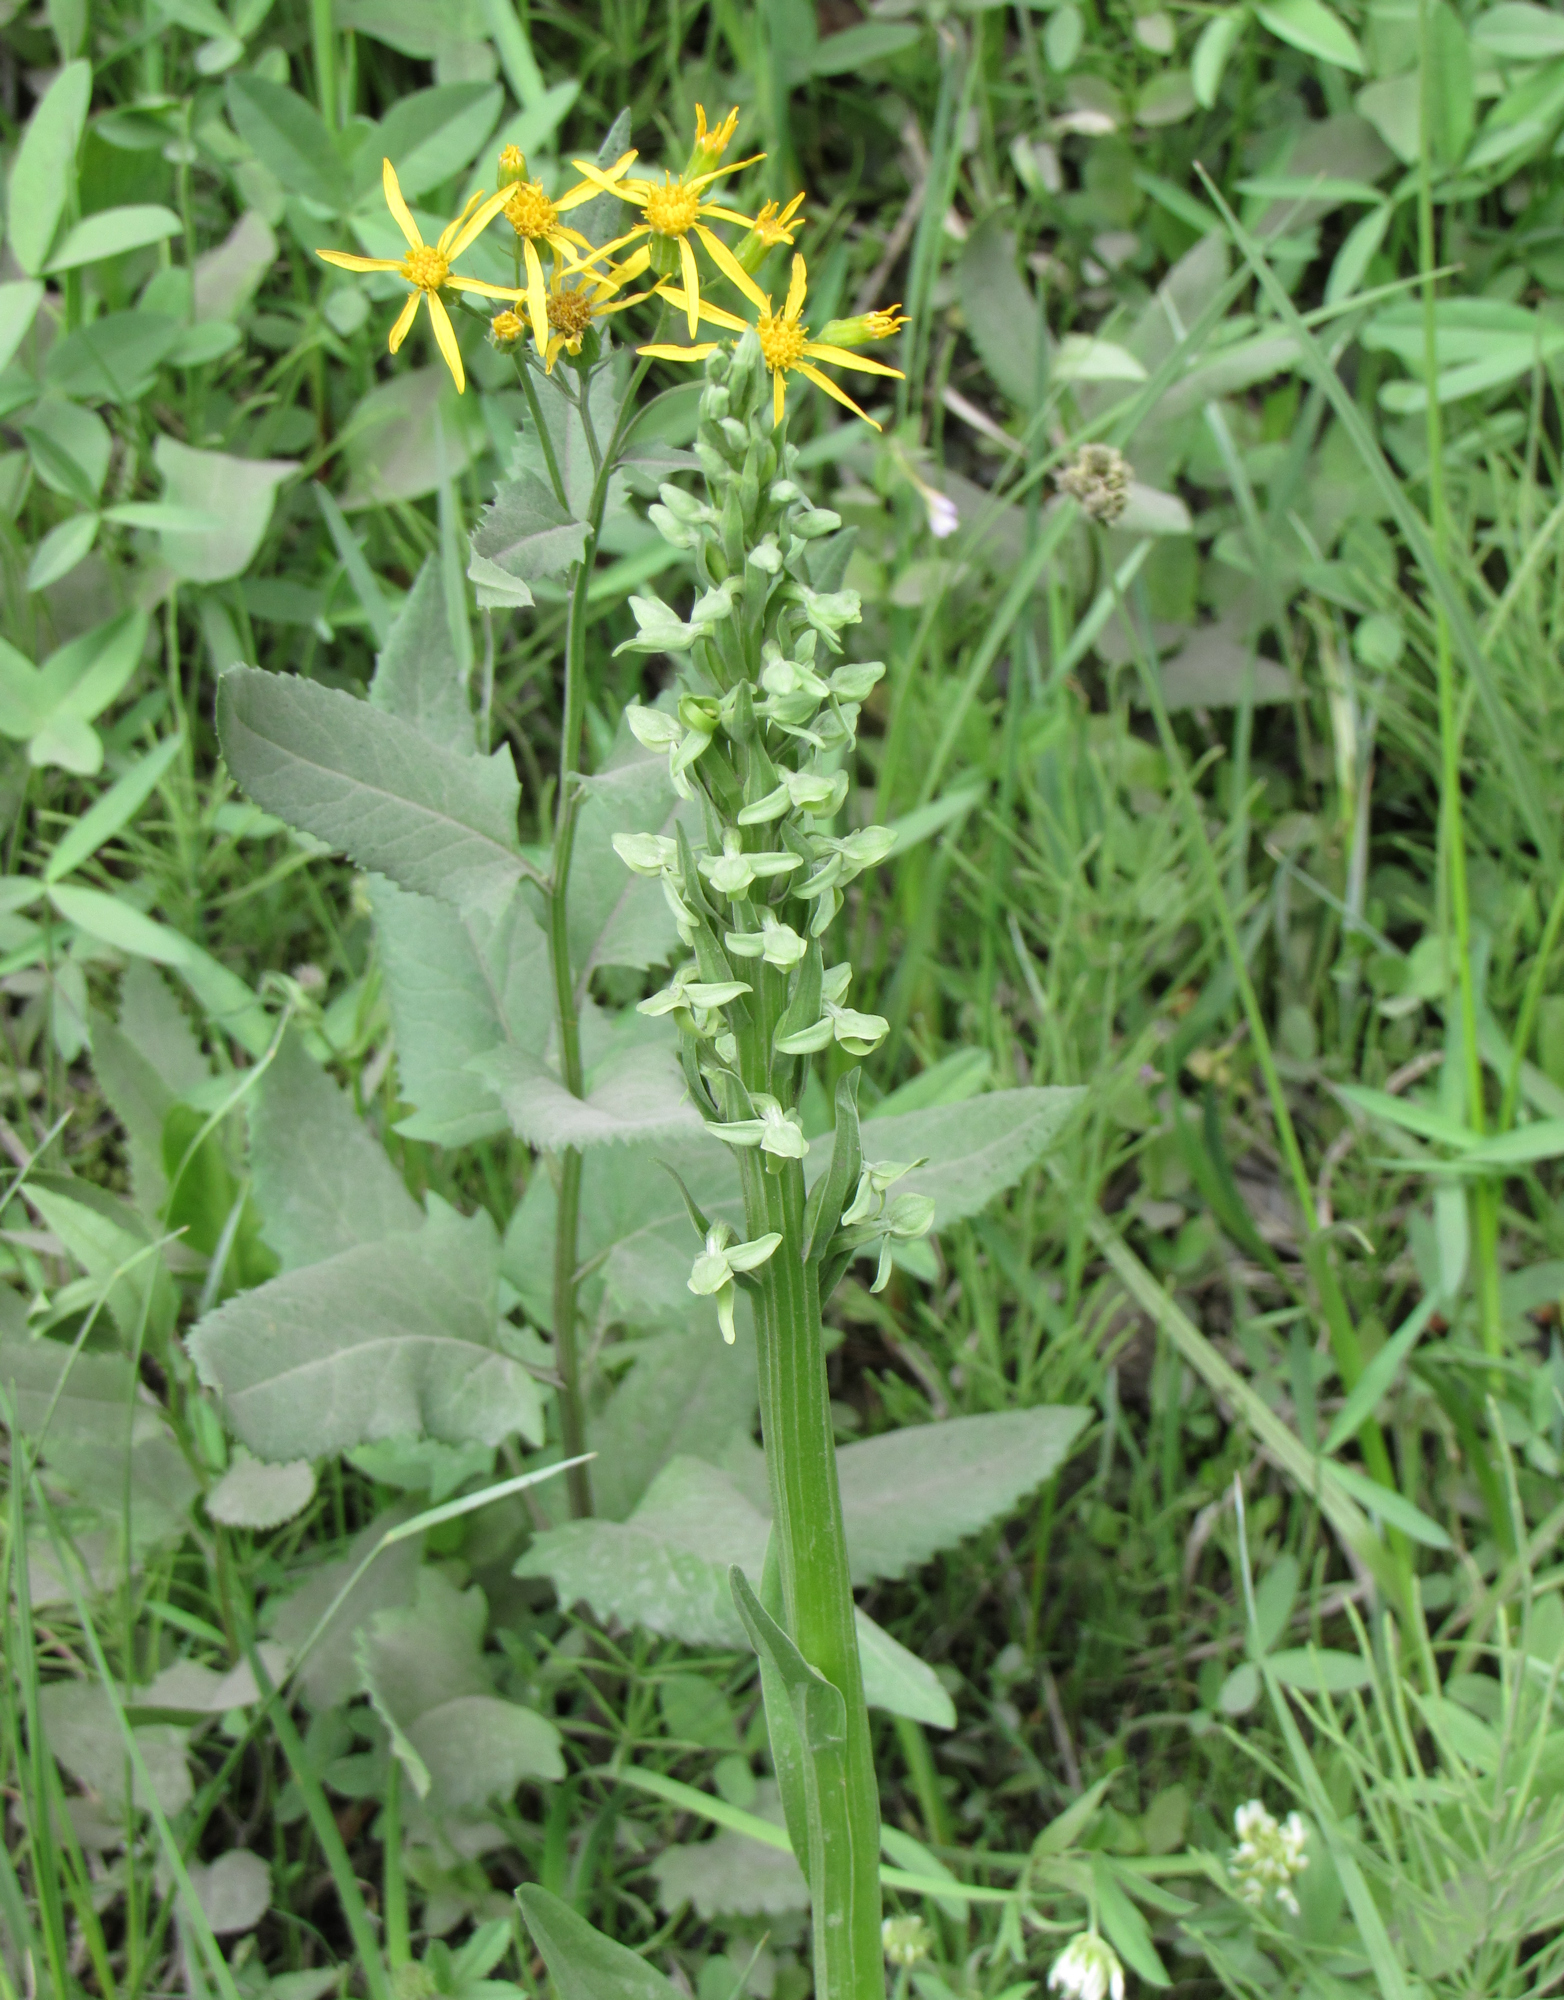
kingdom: Plantae
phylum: Tracheophyta
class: Liliopsida
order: Asparagales
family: Orchidaceae
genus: Platanthera
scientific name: Platanthera huronensis
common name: Fragrant green orchid
